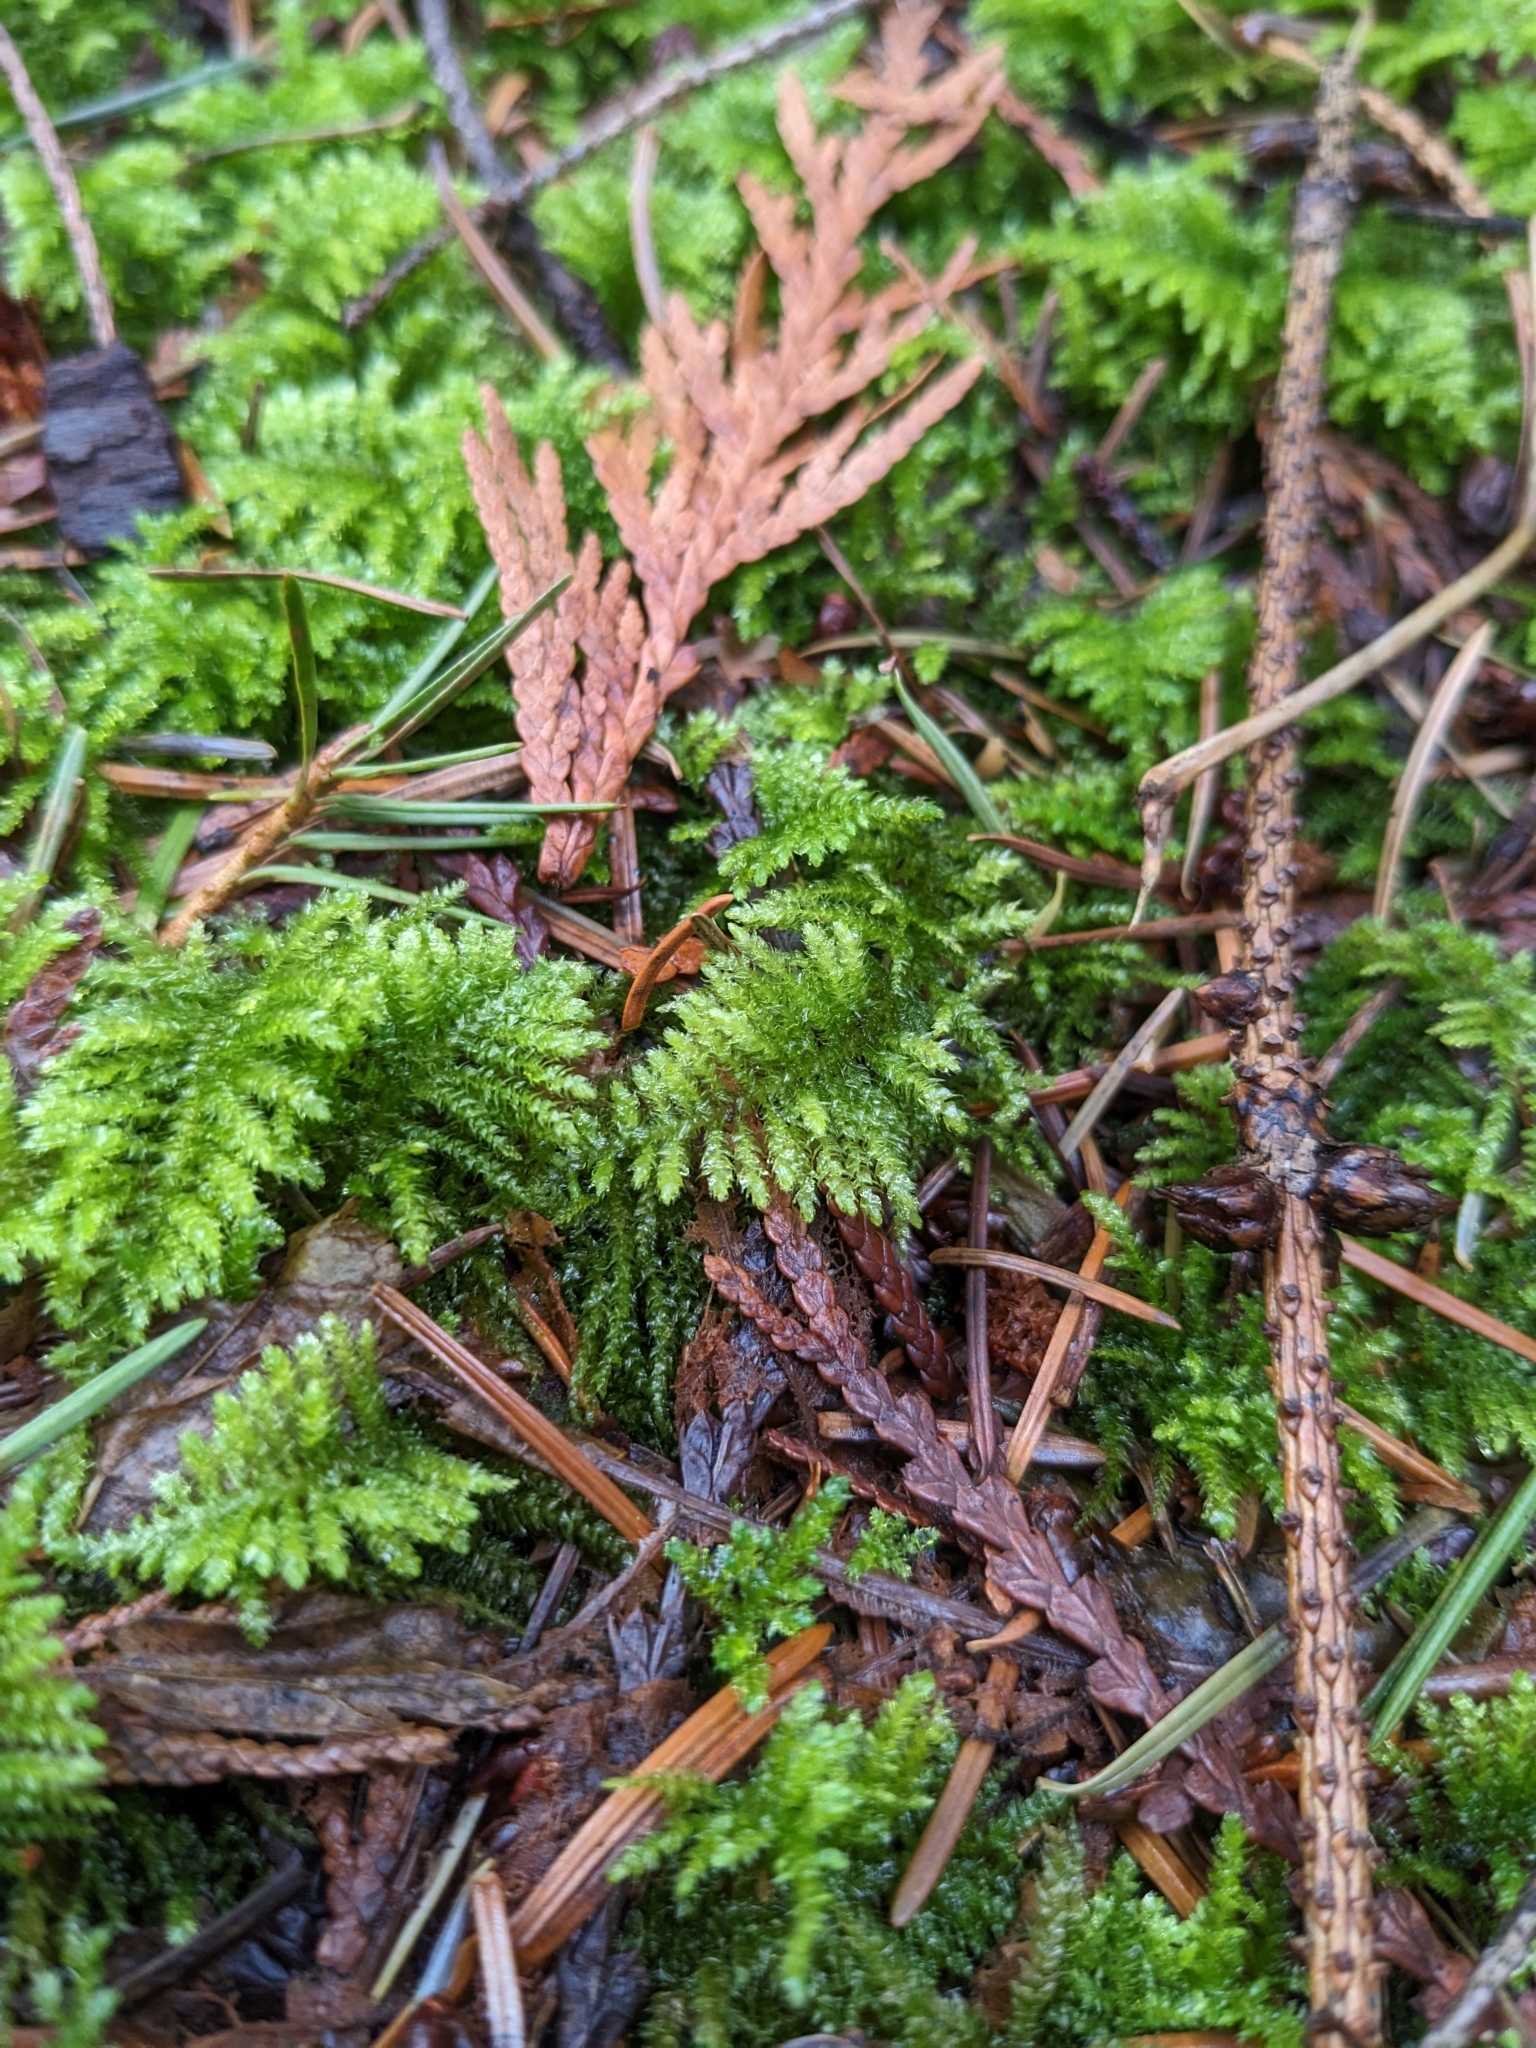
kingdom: Plantae
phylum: Bryophyta
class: Bryopsida
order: Hypnales
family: Brachytheciaceae
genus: Kindbergia
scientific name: Kindbergia oregana
